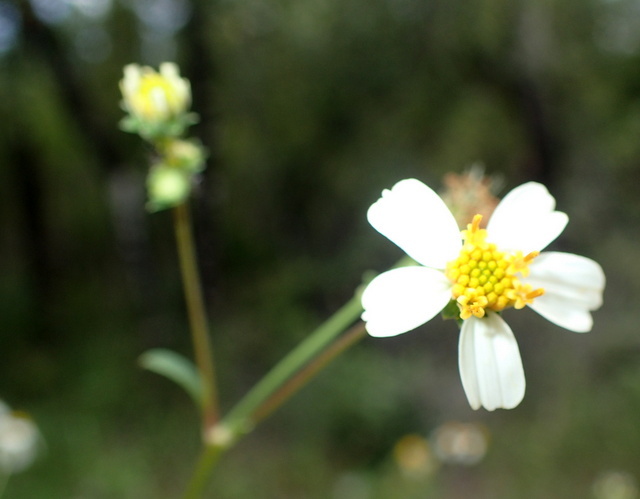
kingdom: Plantae
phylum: Tracheophyta
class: Magnoliopsida
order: Asterales
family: Asteraceae
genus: Bidens
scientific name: Bidens alba
